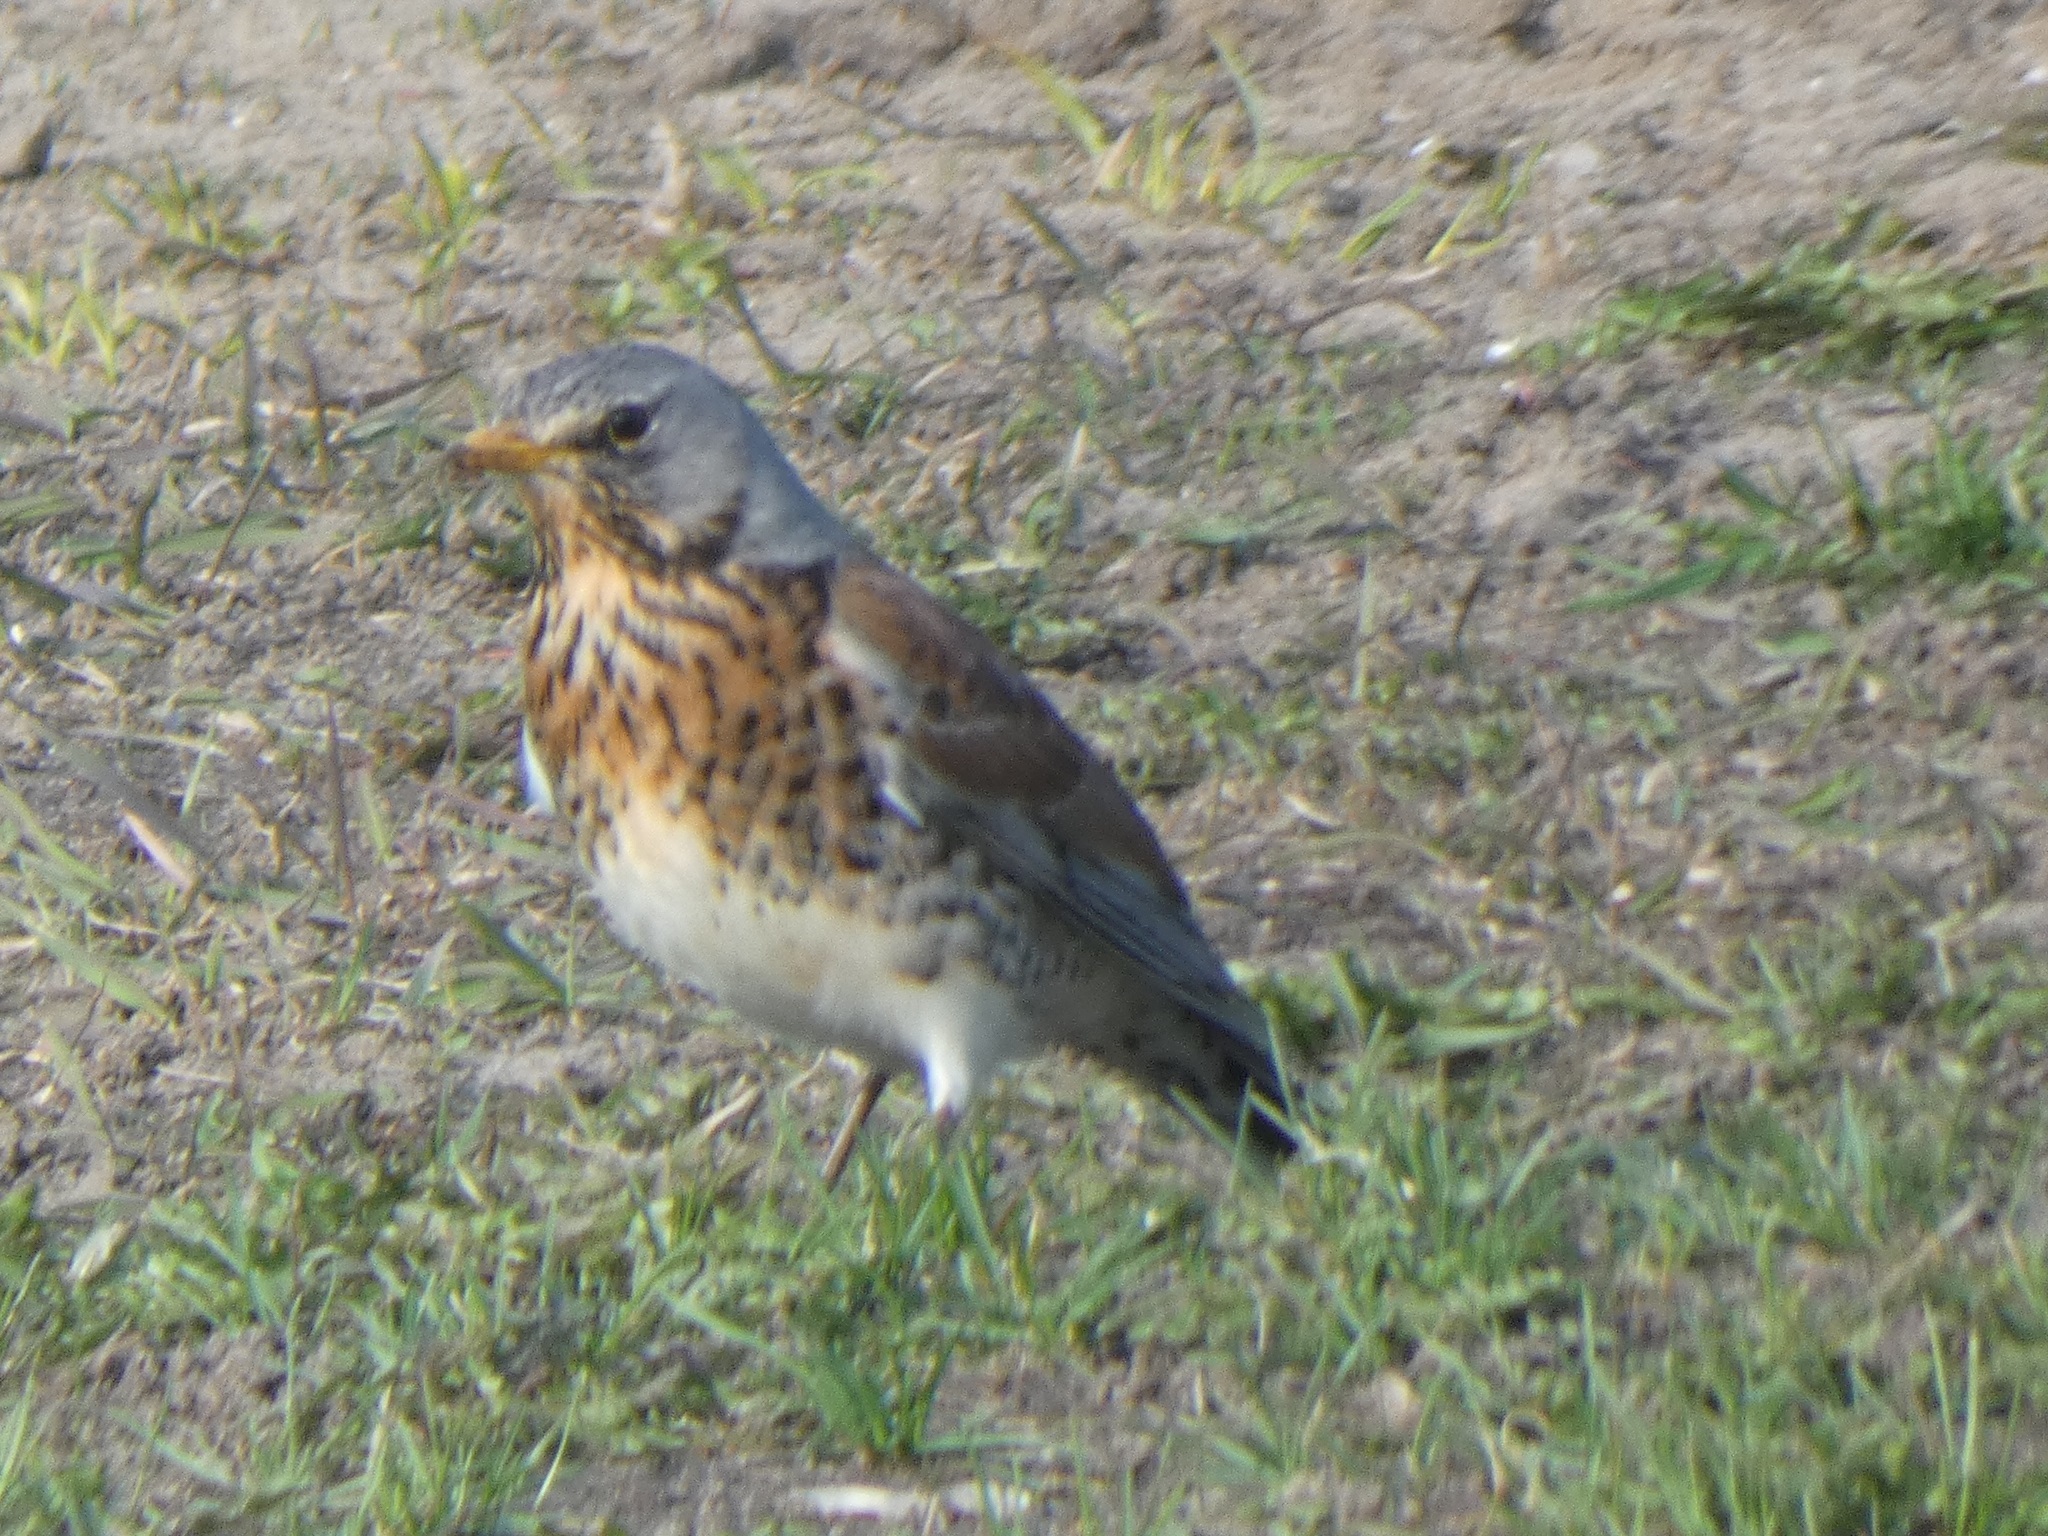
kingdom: Animalia
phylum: Chordata
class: Aves
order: Passeriformes
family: Turdidae
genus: Turdus
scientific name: Turdus pilaris
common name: Fieldfare
